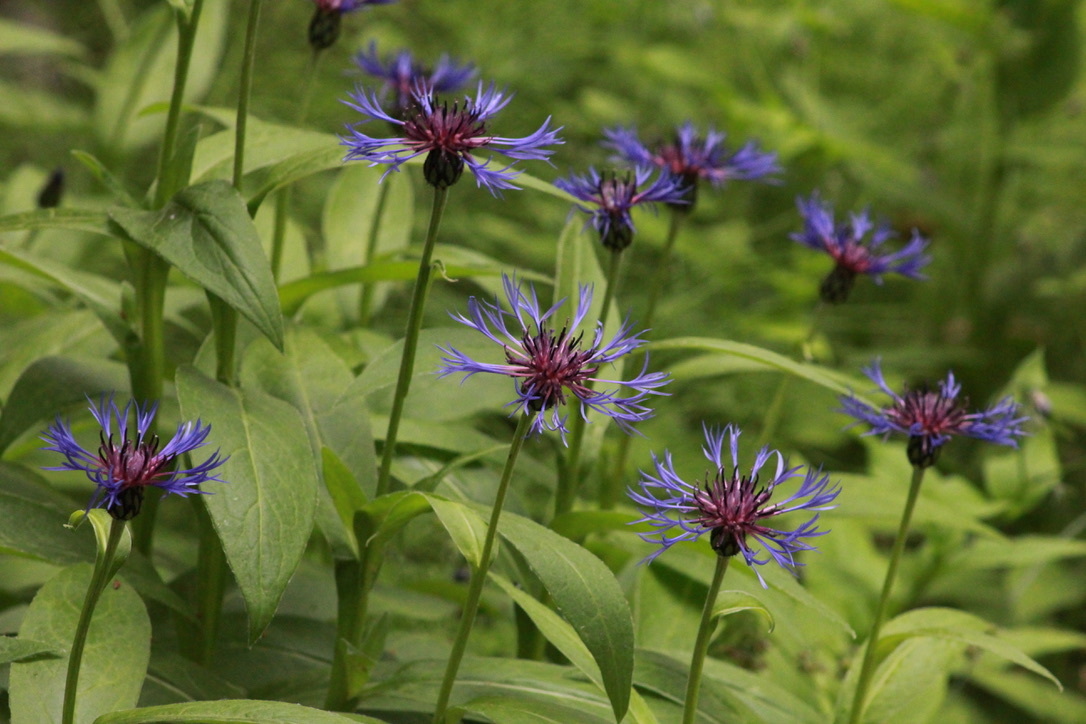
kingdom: Plantae
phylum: Tracheophyta
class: Magnoliopsida
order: Asterales
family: Asteraceae
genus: Centaurea
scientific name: Centaurea montana
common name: Perennial cornflower
